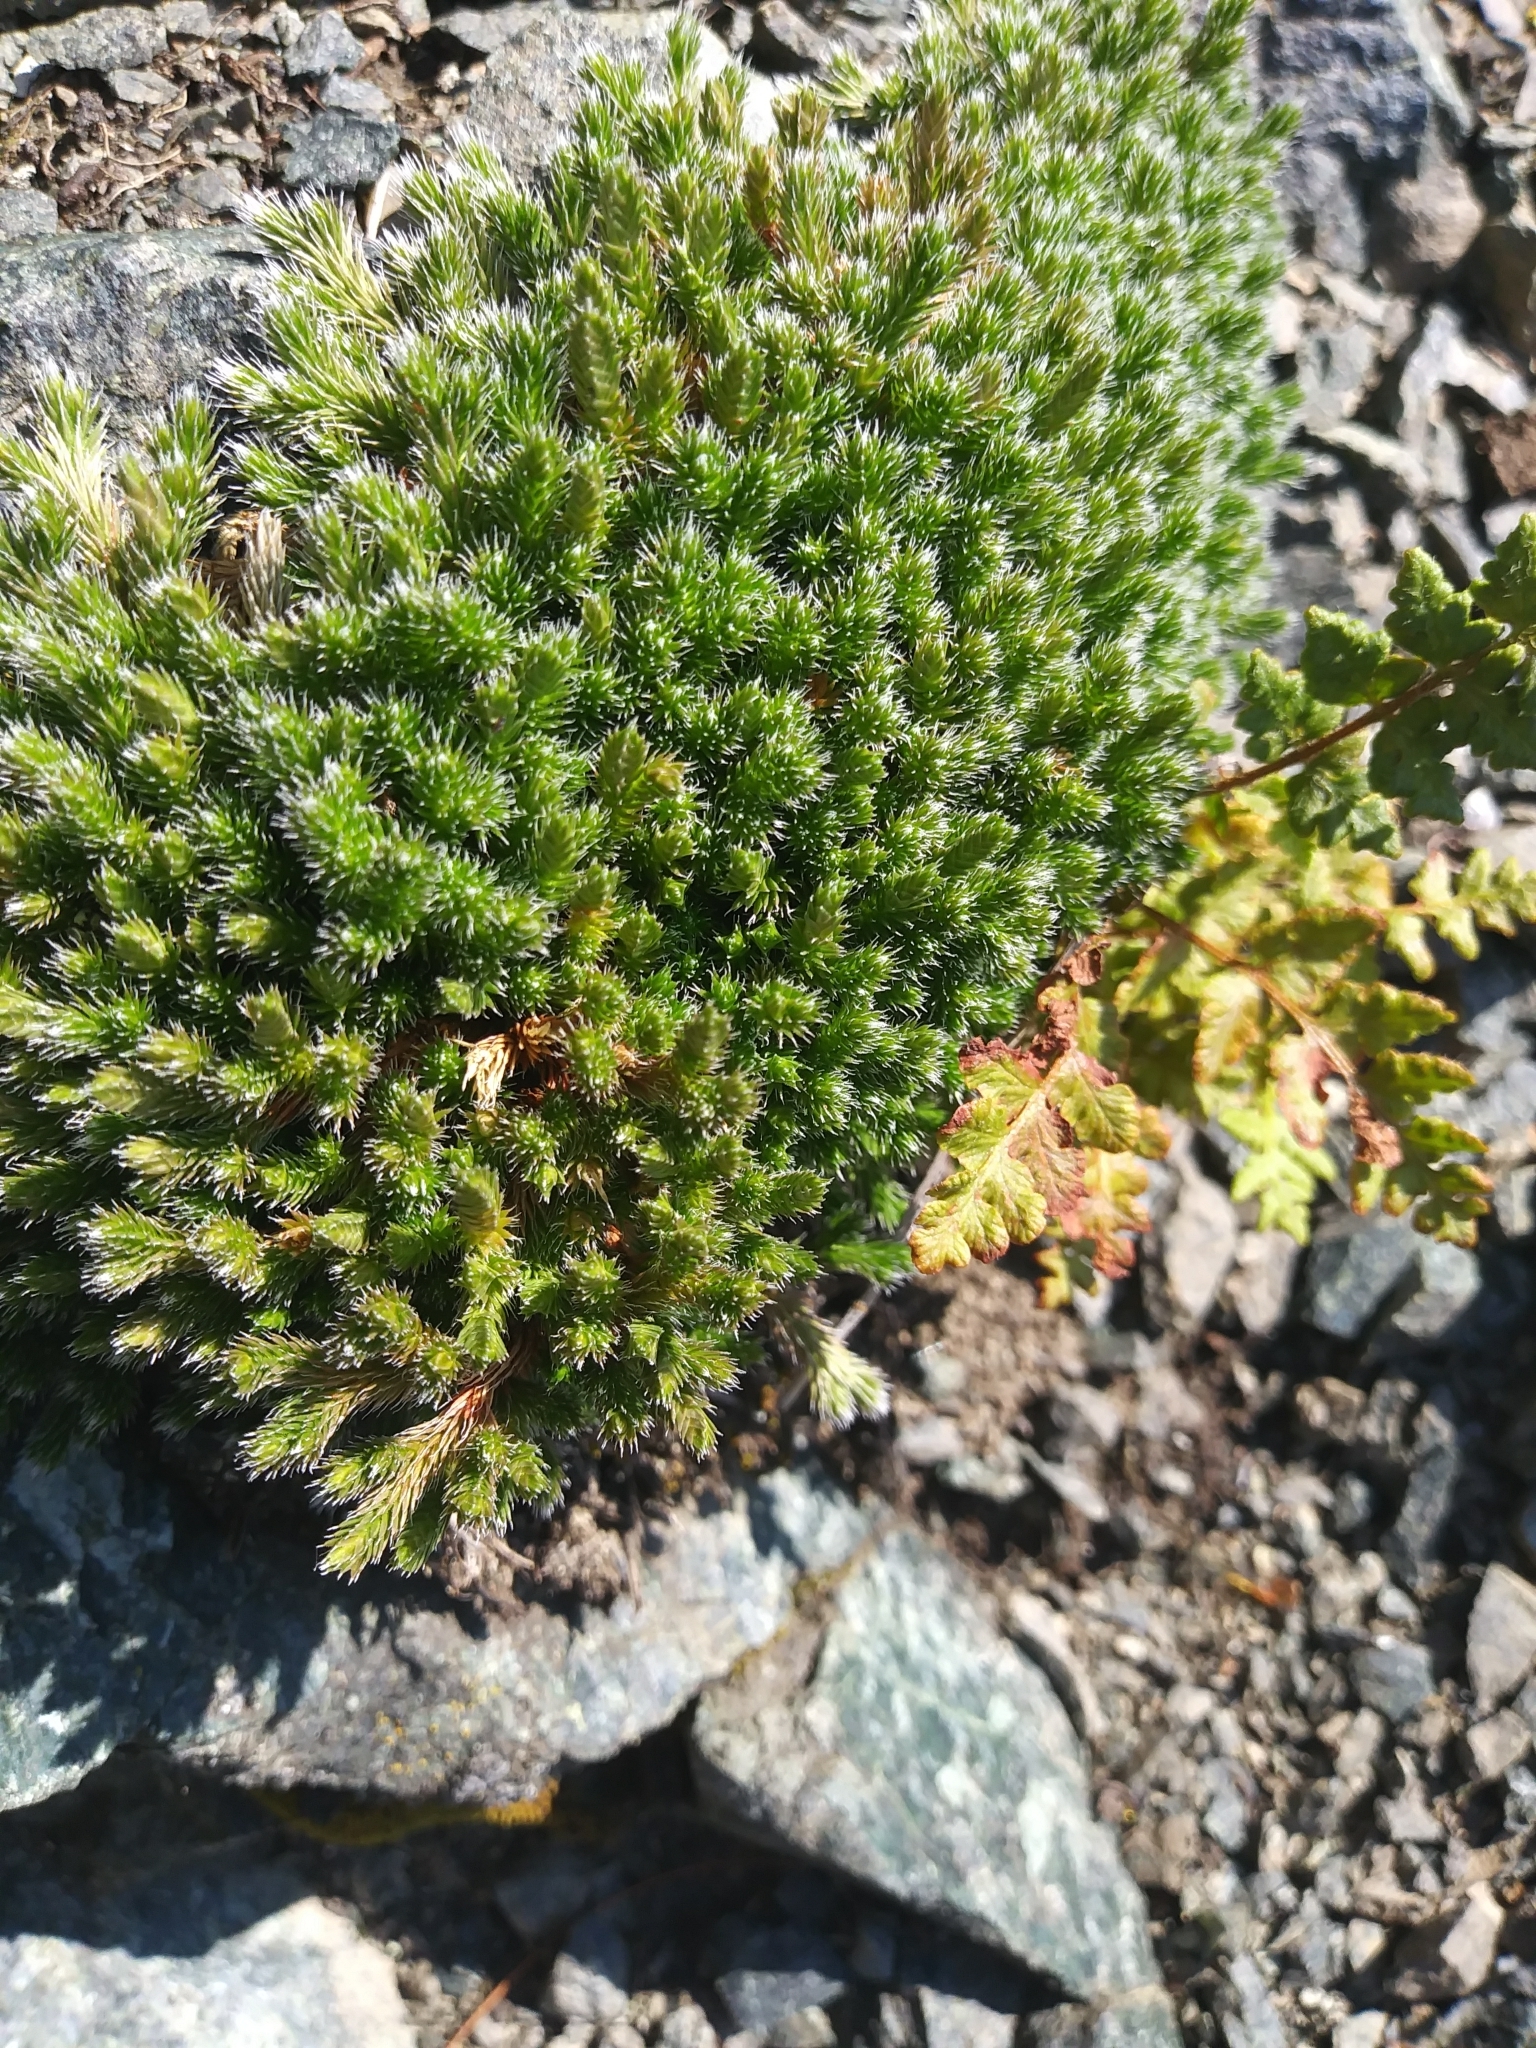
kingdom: Plantae
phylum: Tracheophyta
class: Lycopodiopsida
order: Selaginellales
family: Selaginellaceae
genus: Selaginella
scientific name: Selaginella rupestris
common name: Dwarf spikemoss
